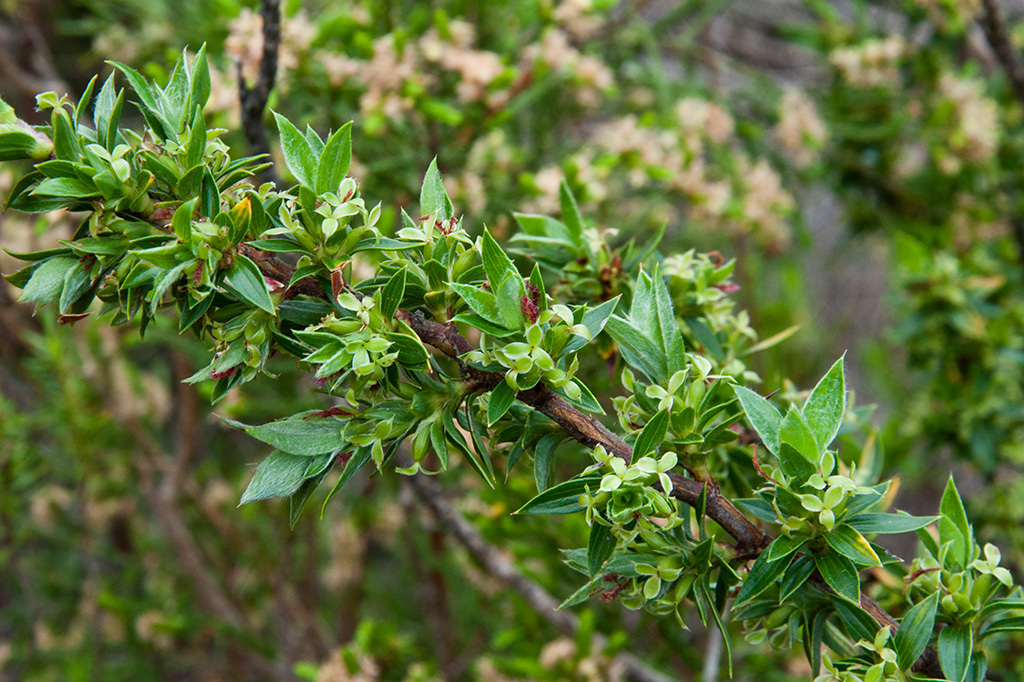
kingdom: Plantae
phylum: Tracheophyta
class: Magnoliopsida
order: Rosales
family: Rosaceae
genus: Cliffortia
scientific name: Cliffortia ruscifolia
